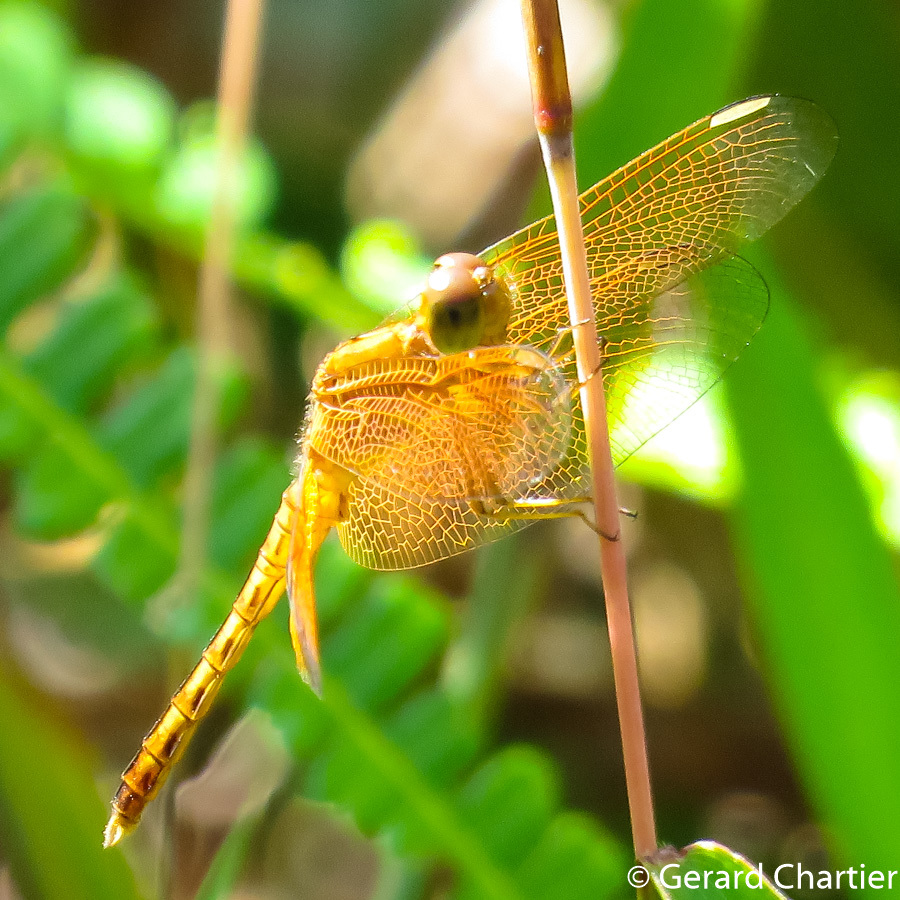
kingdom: Animalia
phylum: Arthropoda
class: Insecta
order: Odonata
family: Libellulidae
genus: Neurothemis
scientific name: Neurothemis fluctuans
